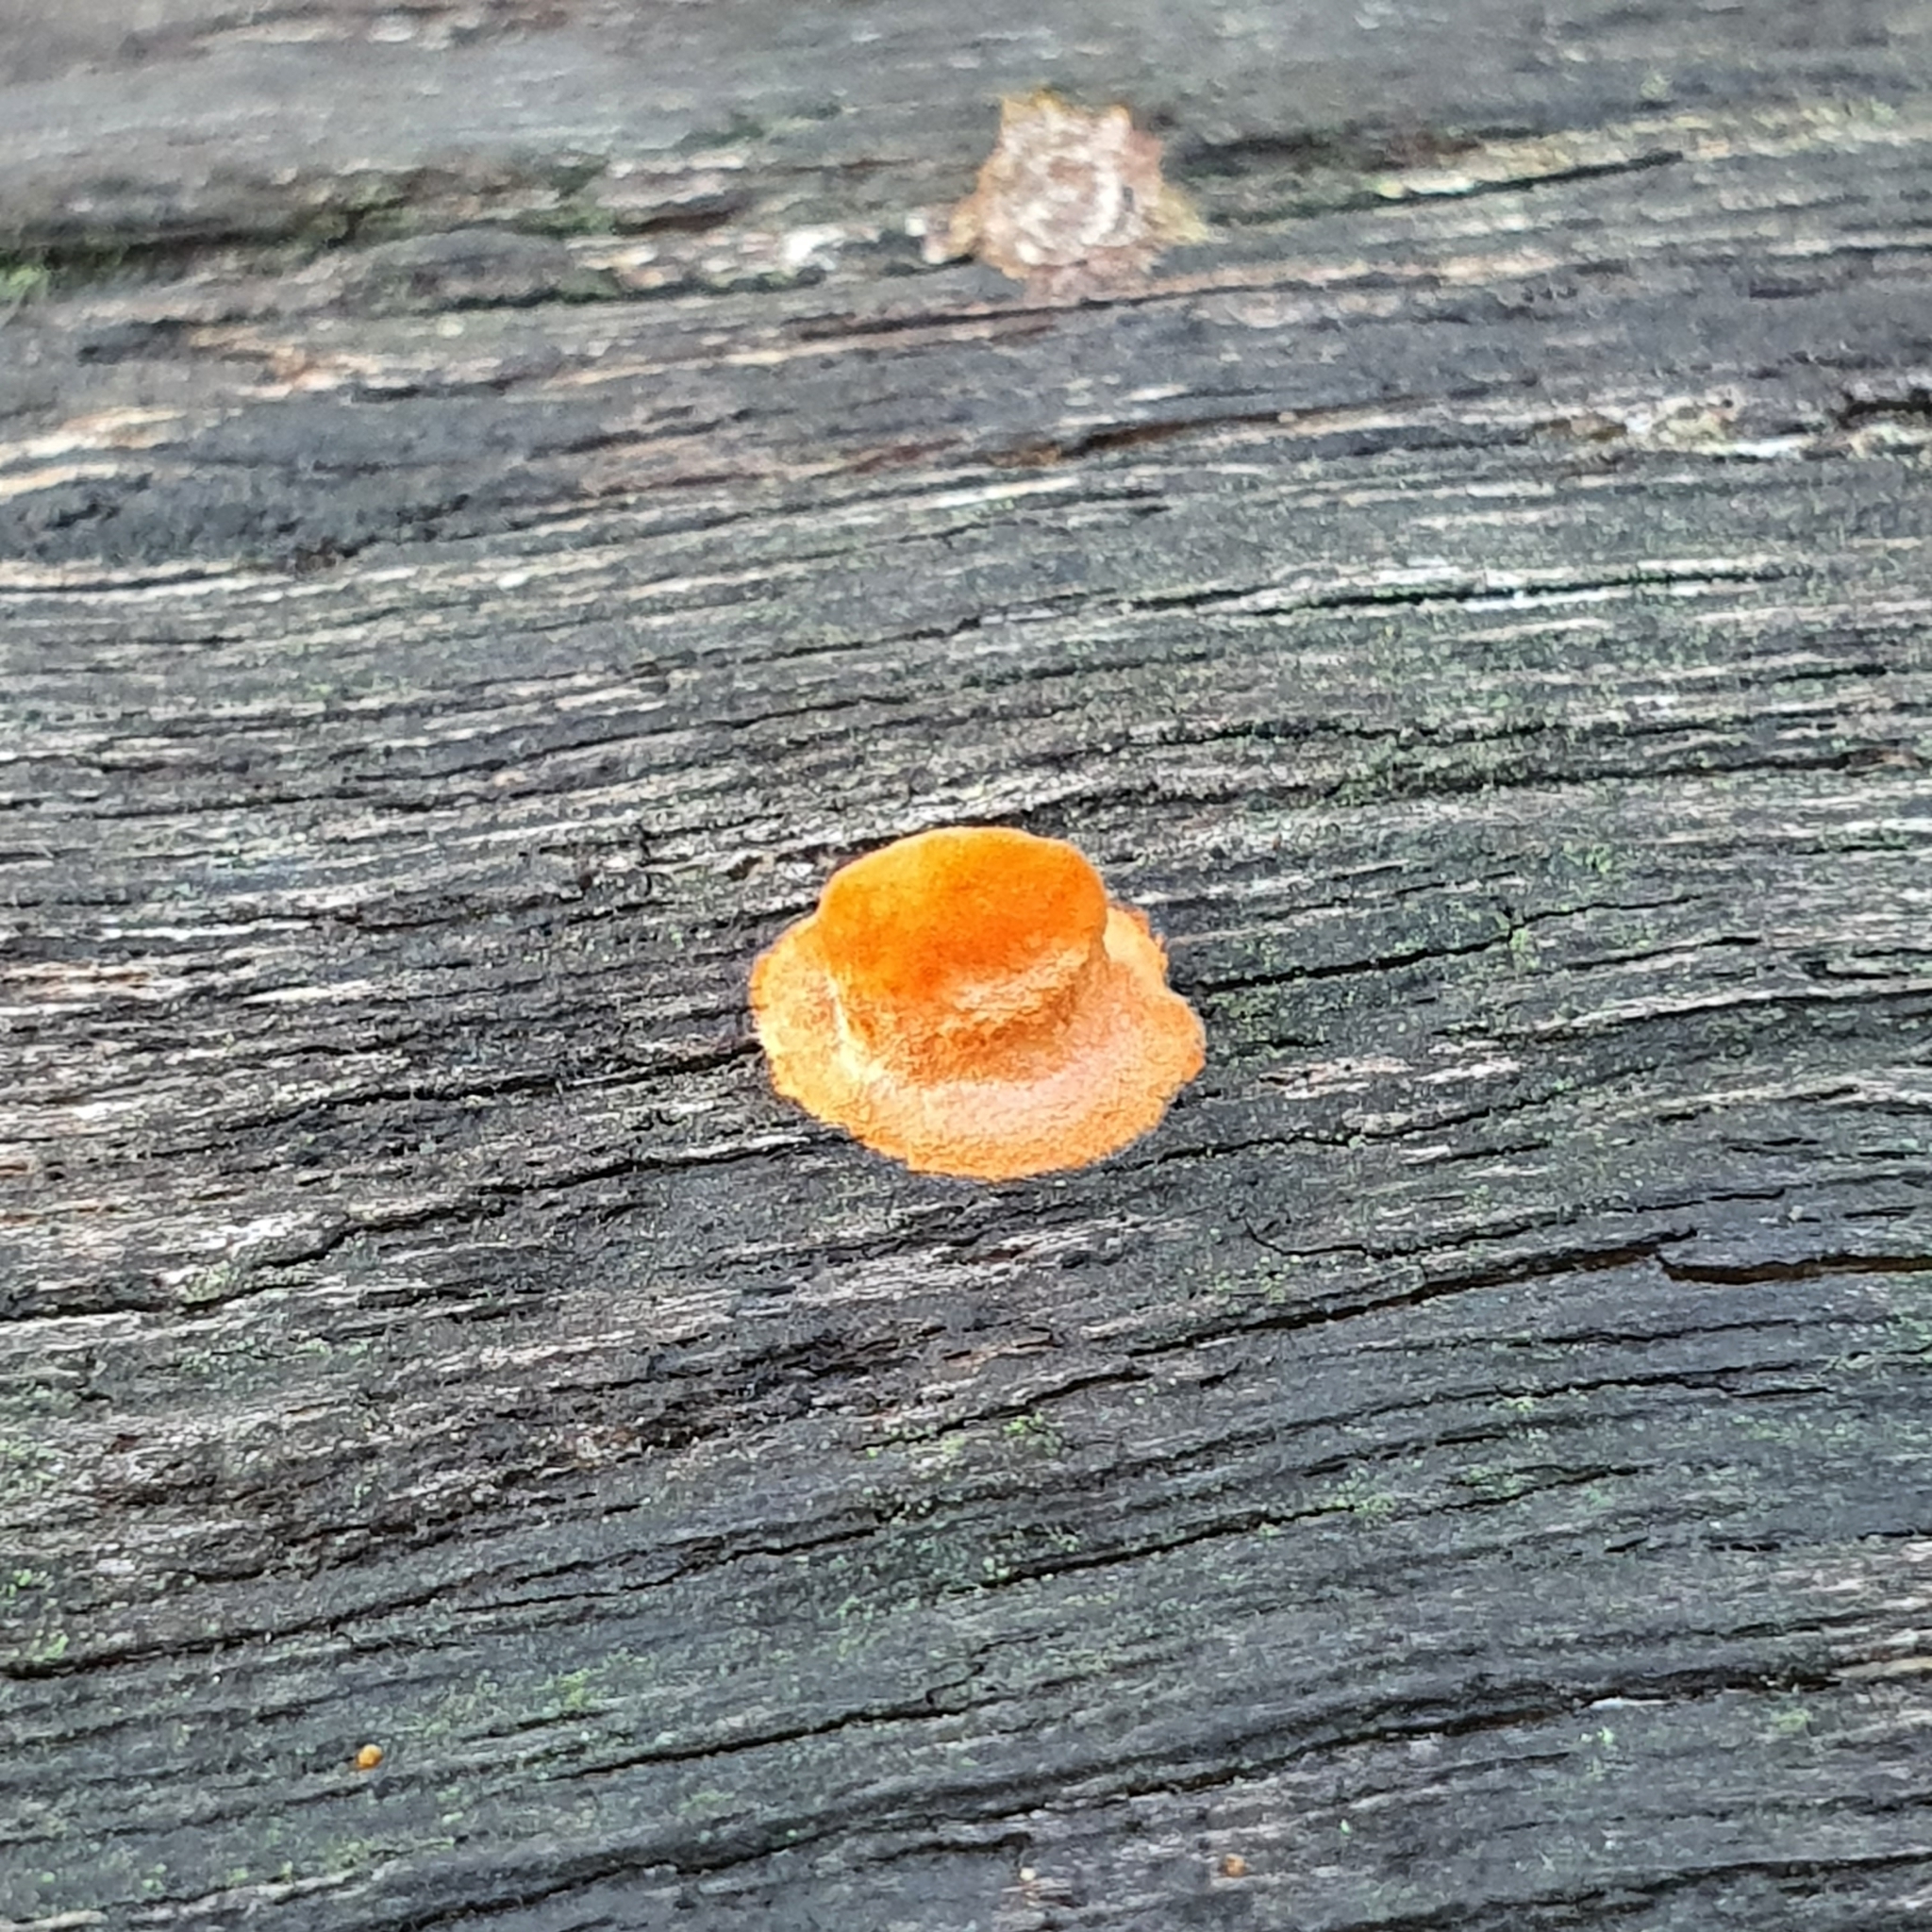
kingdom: Fungi
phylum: Basidiomycota
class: Agaricomycetes
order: Polyporales
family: Polyporaceae
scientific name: Polyporaceae
